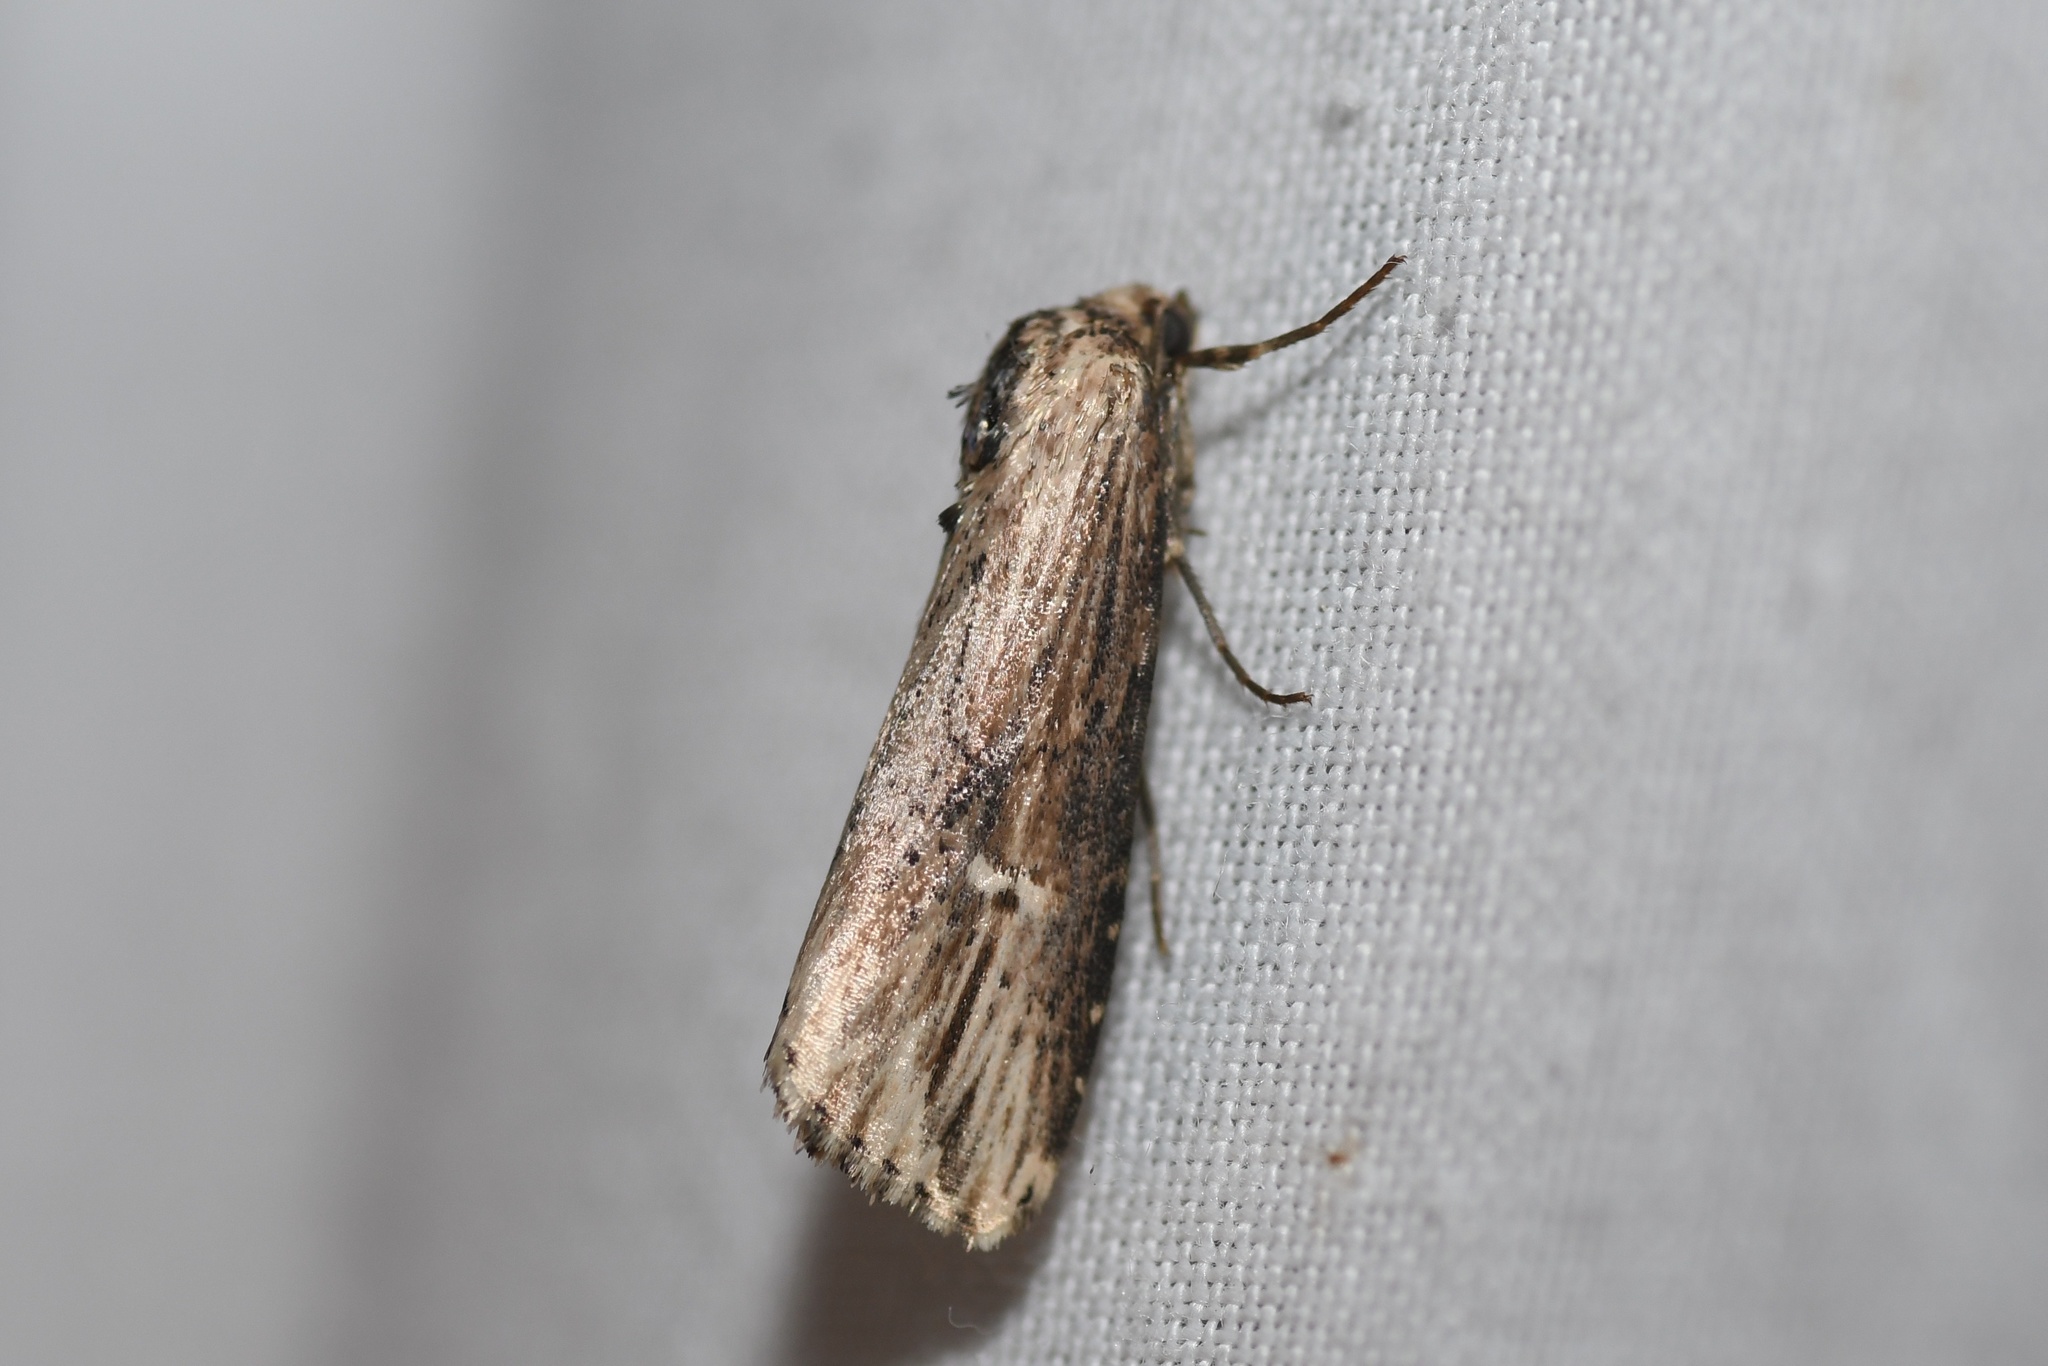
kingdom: Animalia
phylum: Arthropoda
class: Insecta
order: Lepidoptera
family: Noctuidae
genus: Crambodes
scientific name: Crambodes talidiformis
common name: Verbena moth
